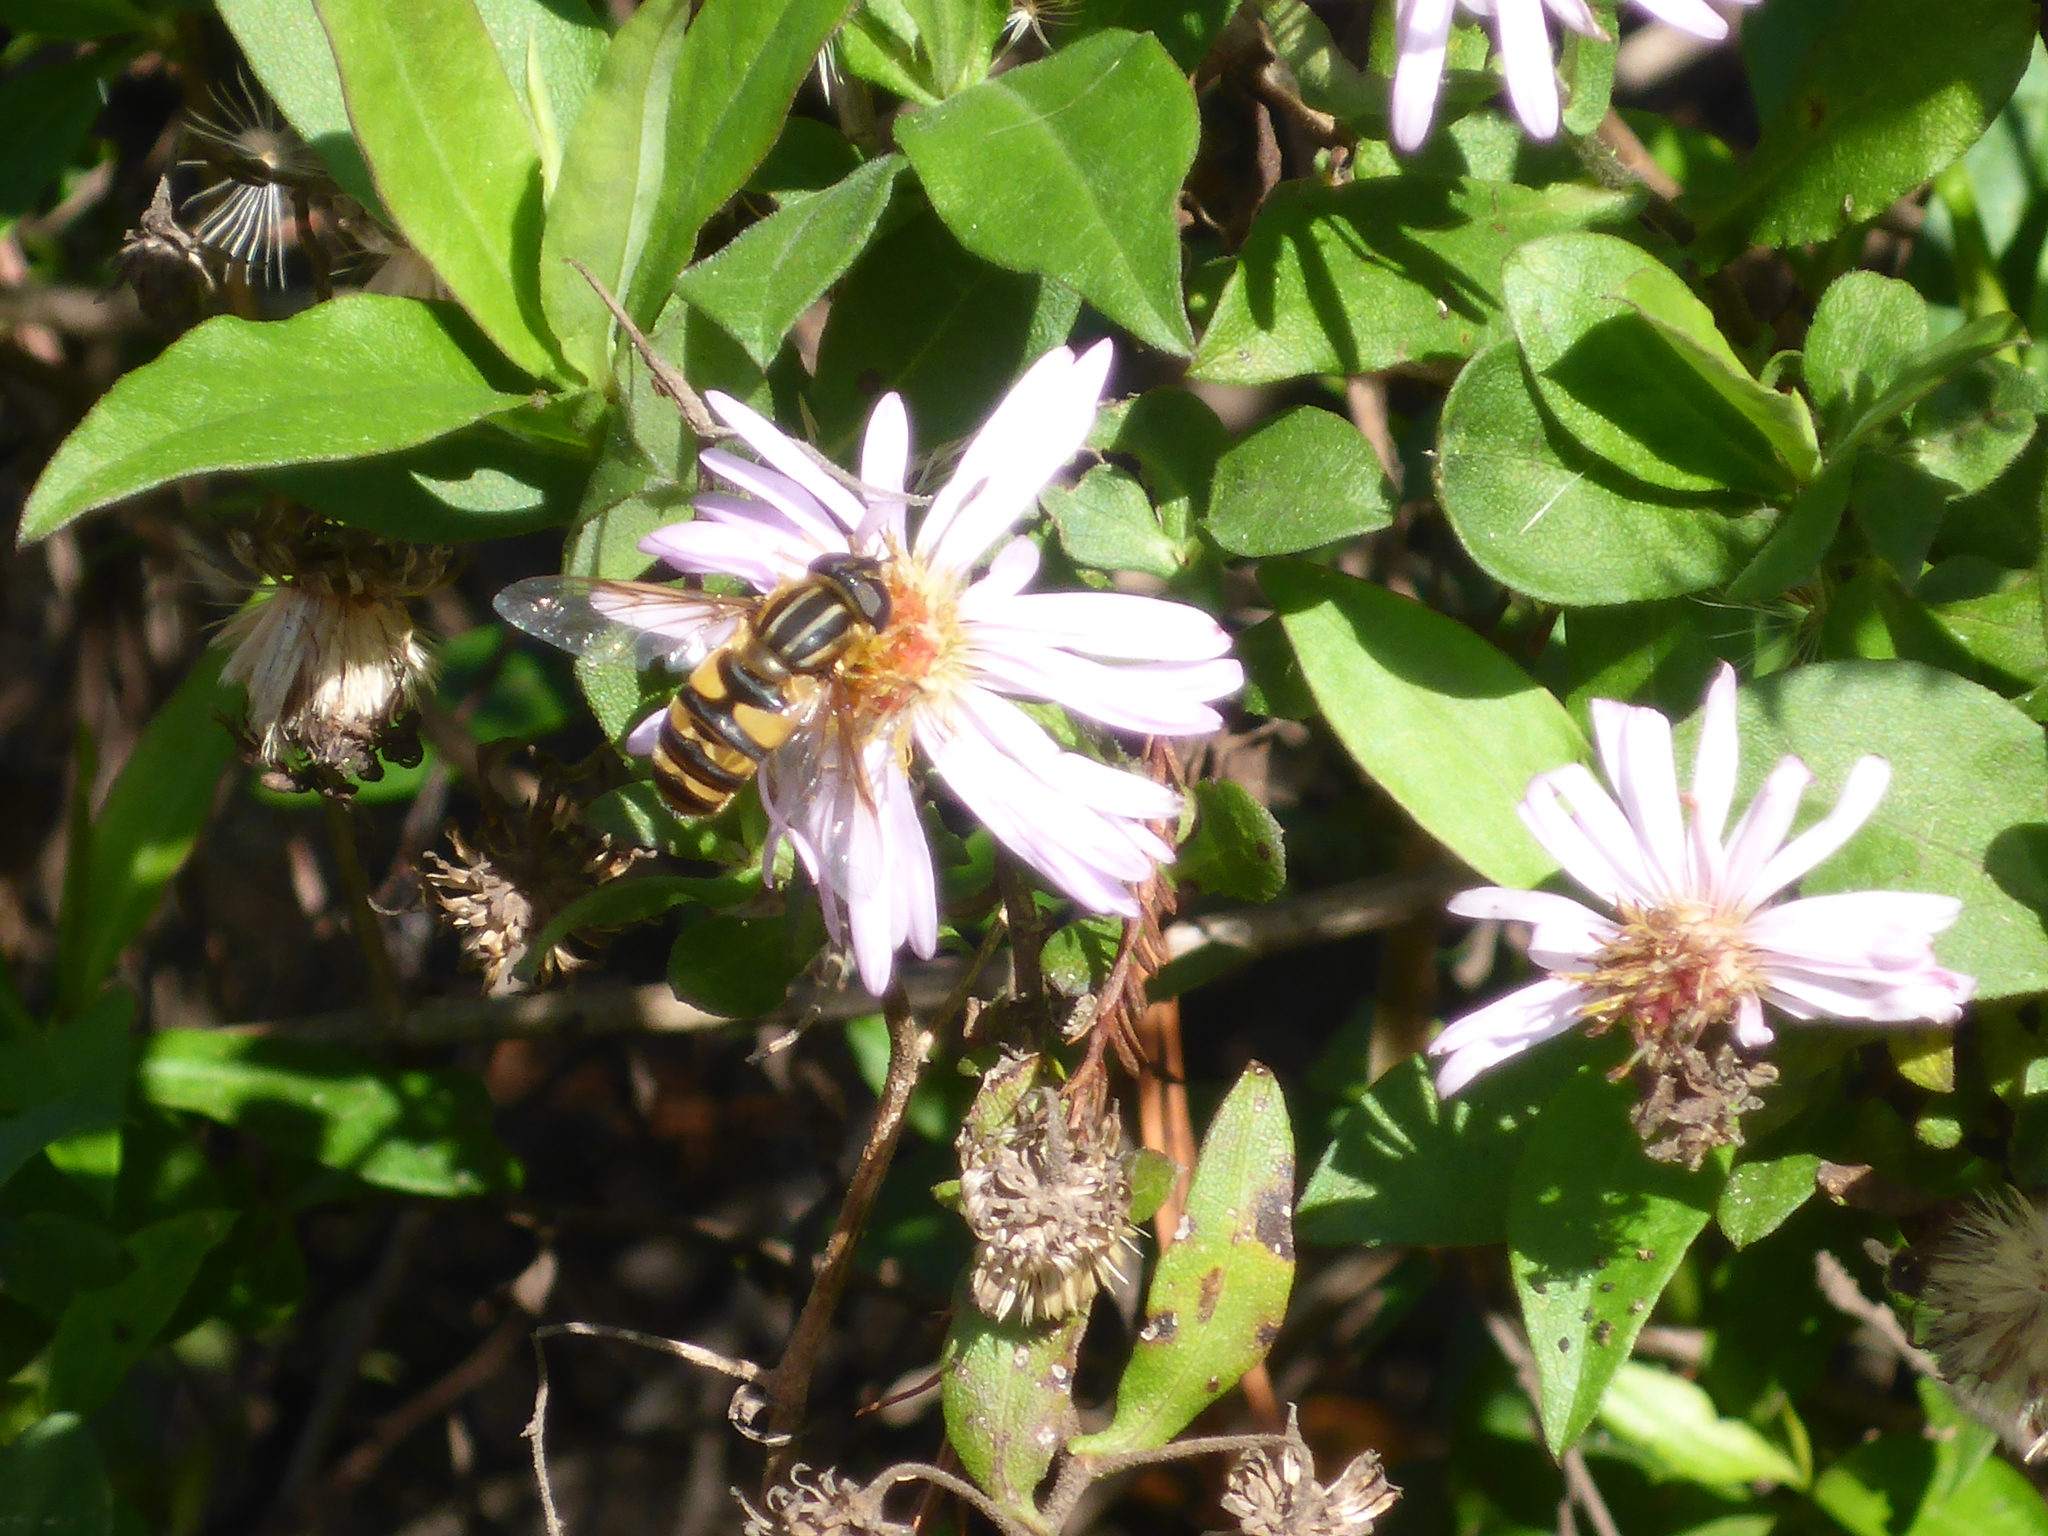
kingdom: Animalia
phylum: Arthropoda
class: Insecta
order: Diptera
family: Syrphidae
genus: Helophilus
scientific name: Helophilus fasciatus
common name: Narrow-headed marsh fly
